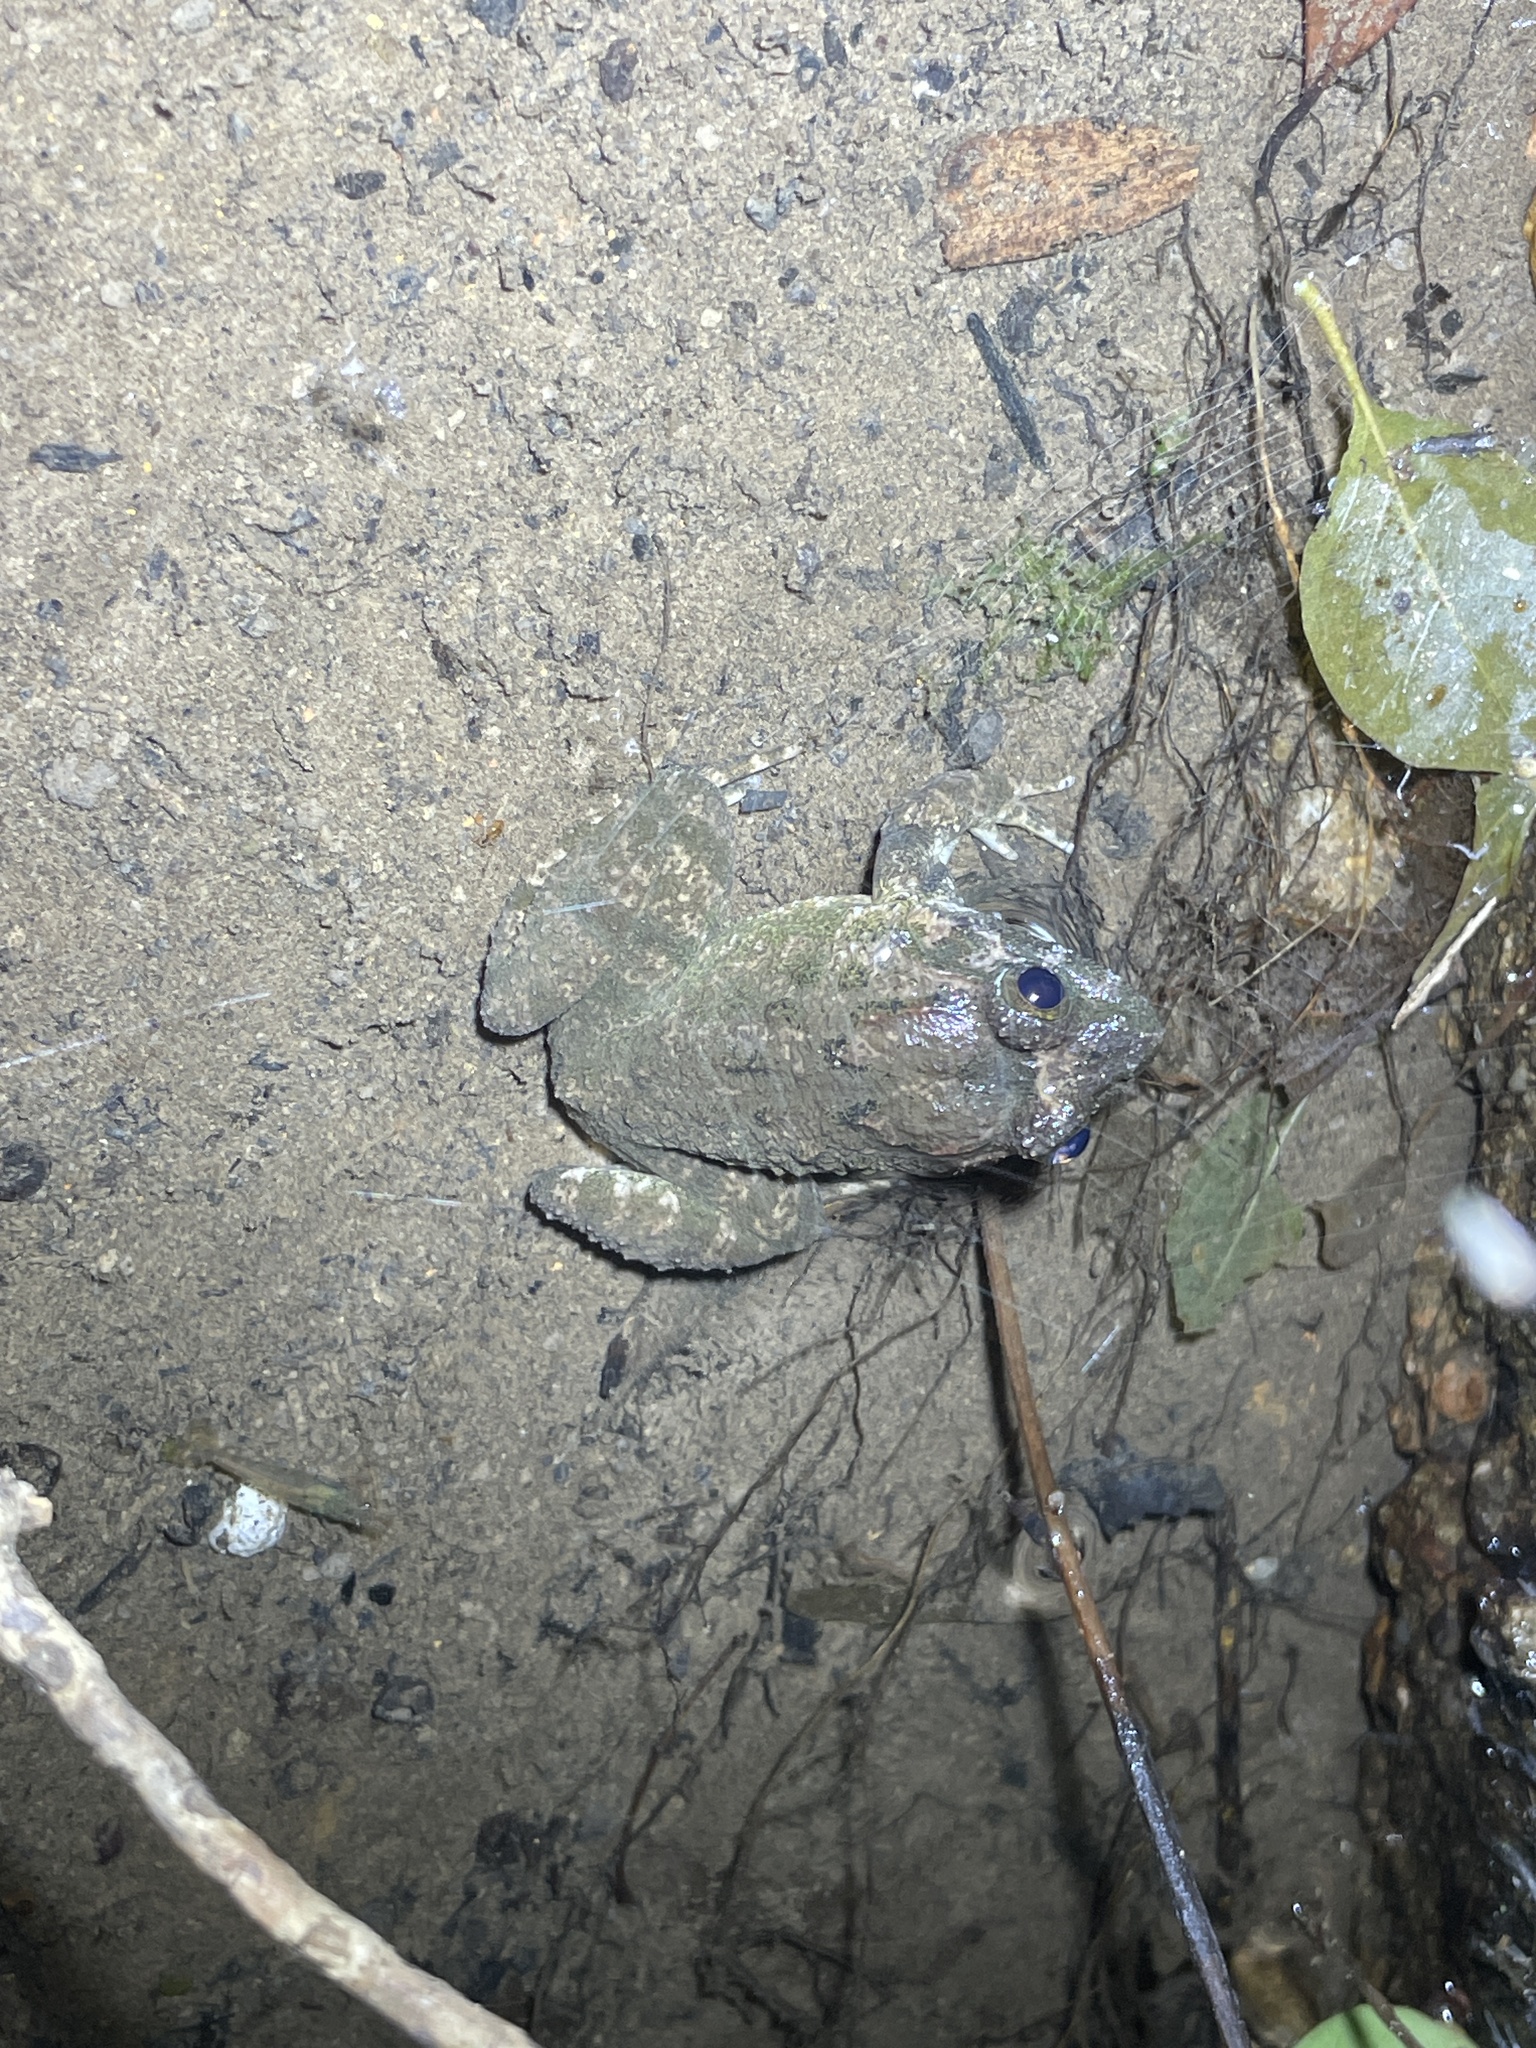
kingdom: Animalia
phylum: Chordata
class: Amphibia
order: Anura
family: Dicroglossidae
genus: Limnonectes
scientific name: Limnonectes fujianensis
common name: Fujian large-headed frog
